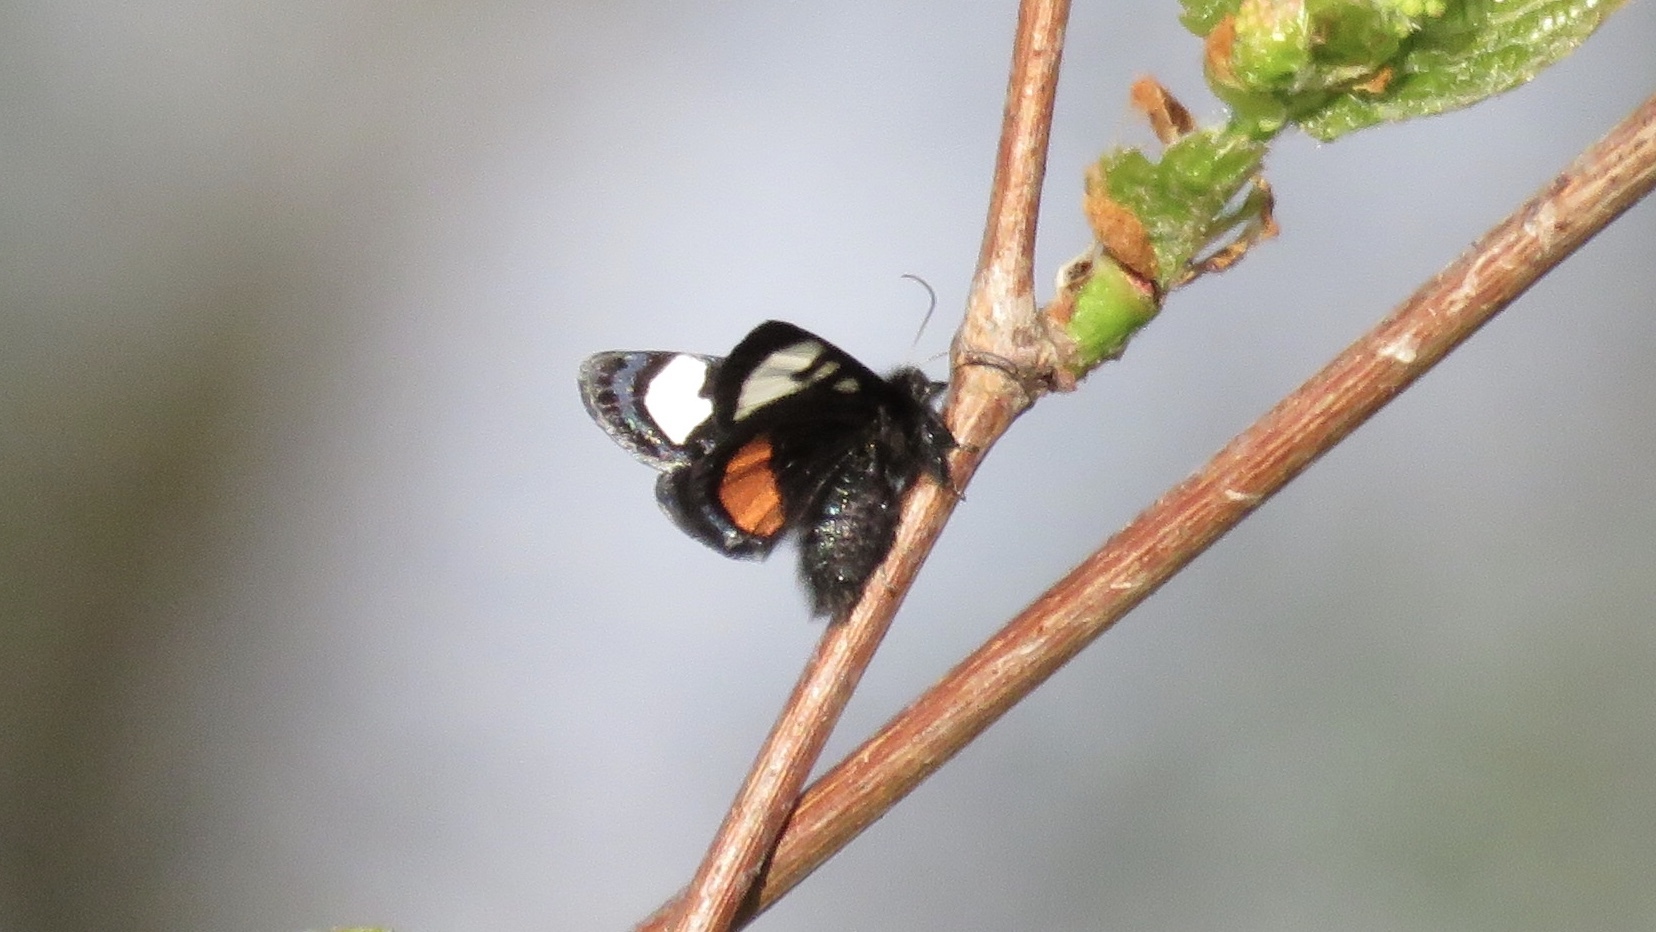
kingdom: Animalia
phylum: Arthropoda
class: Insecta
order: Lepidoptera
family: Noctuidae
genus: Psychomorpha
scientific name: Psychomorpha epimenis
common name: Grapevine epimenis moth
